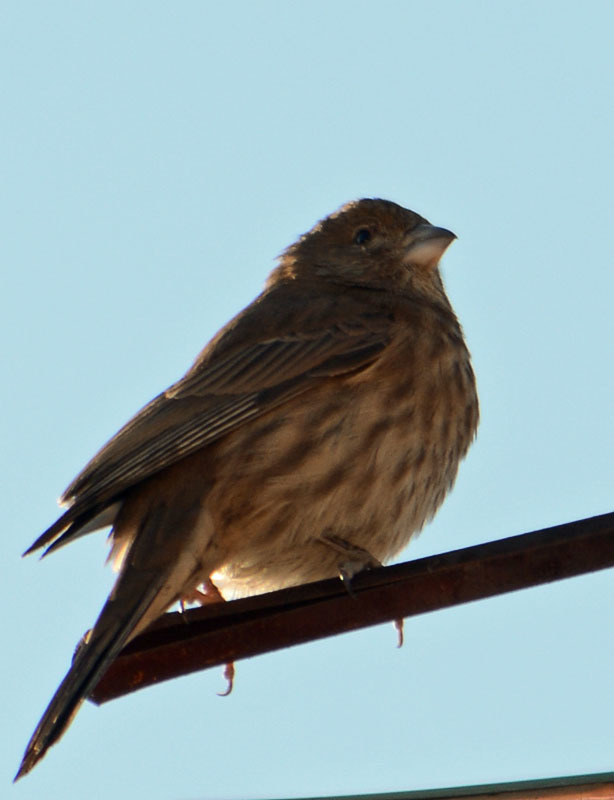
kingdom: Animalia
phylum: Chordata
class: Aves
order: Passeriformes
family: Fringillidae
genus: Haemorhous
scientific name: Haemorhous mexicanus
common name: House finch
